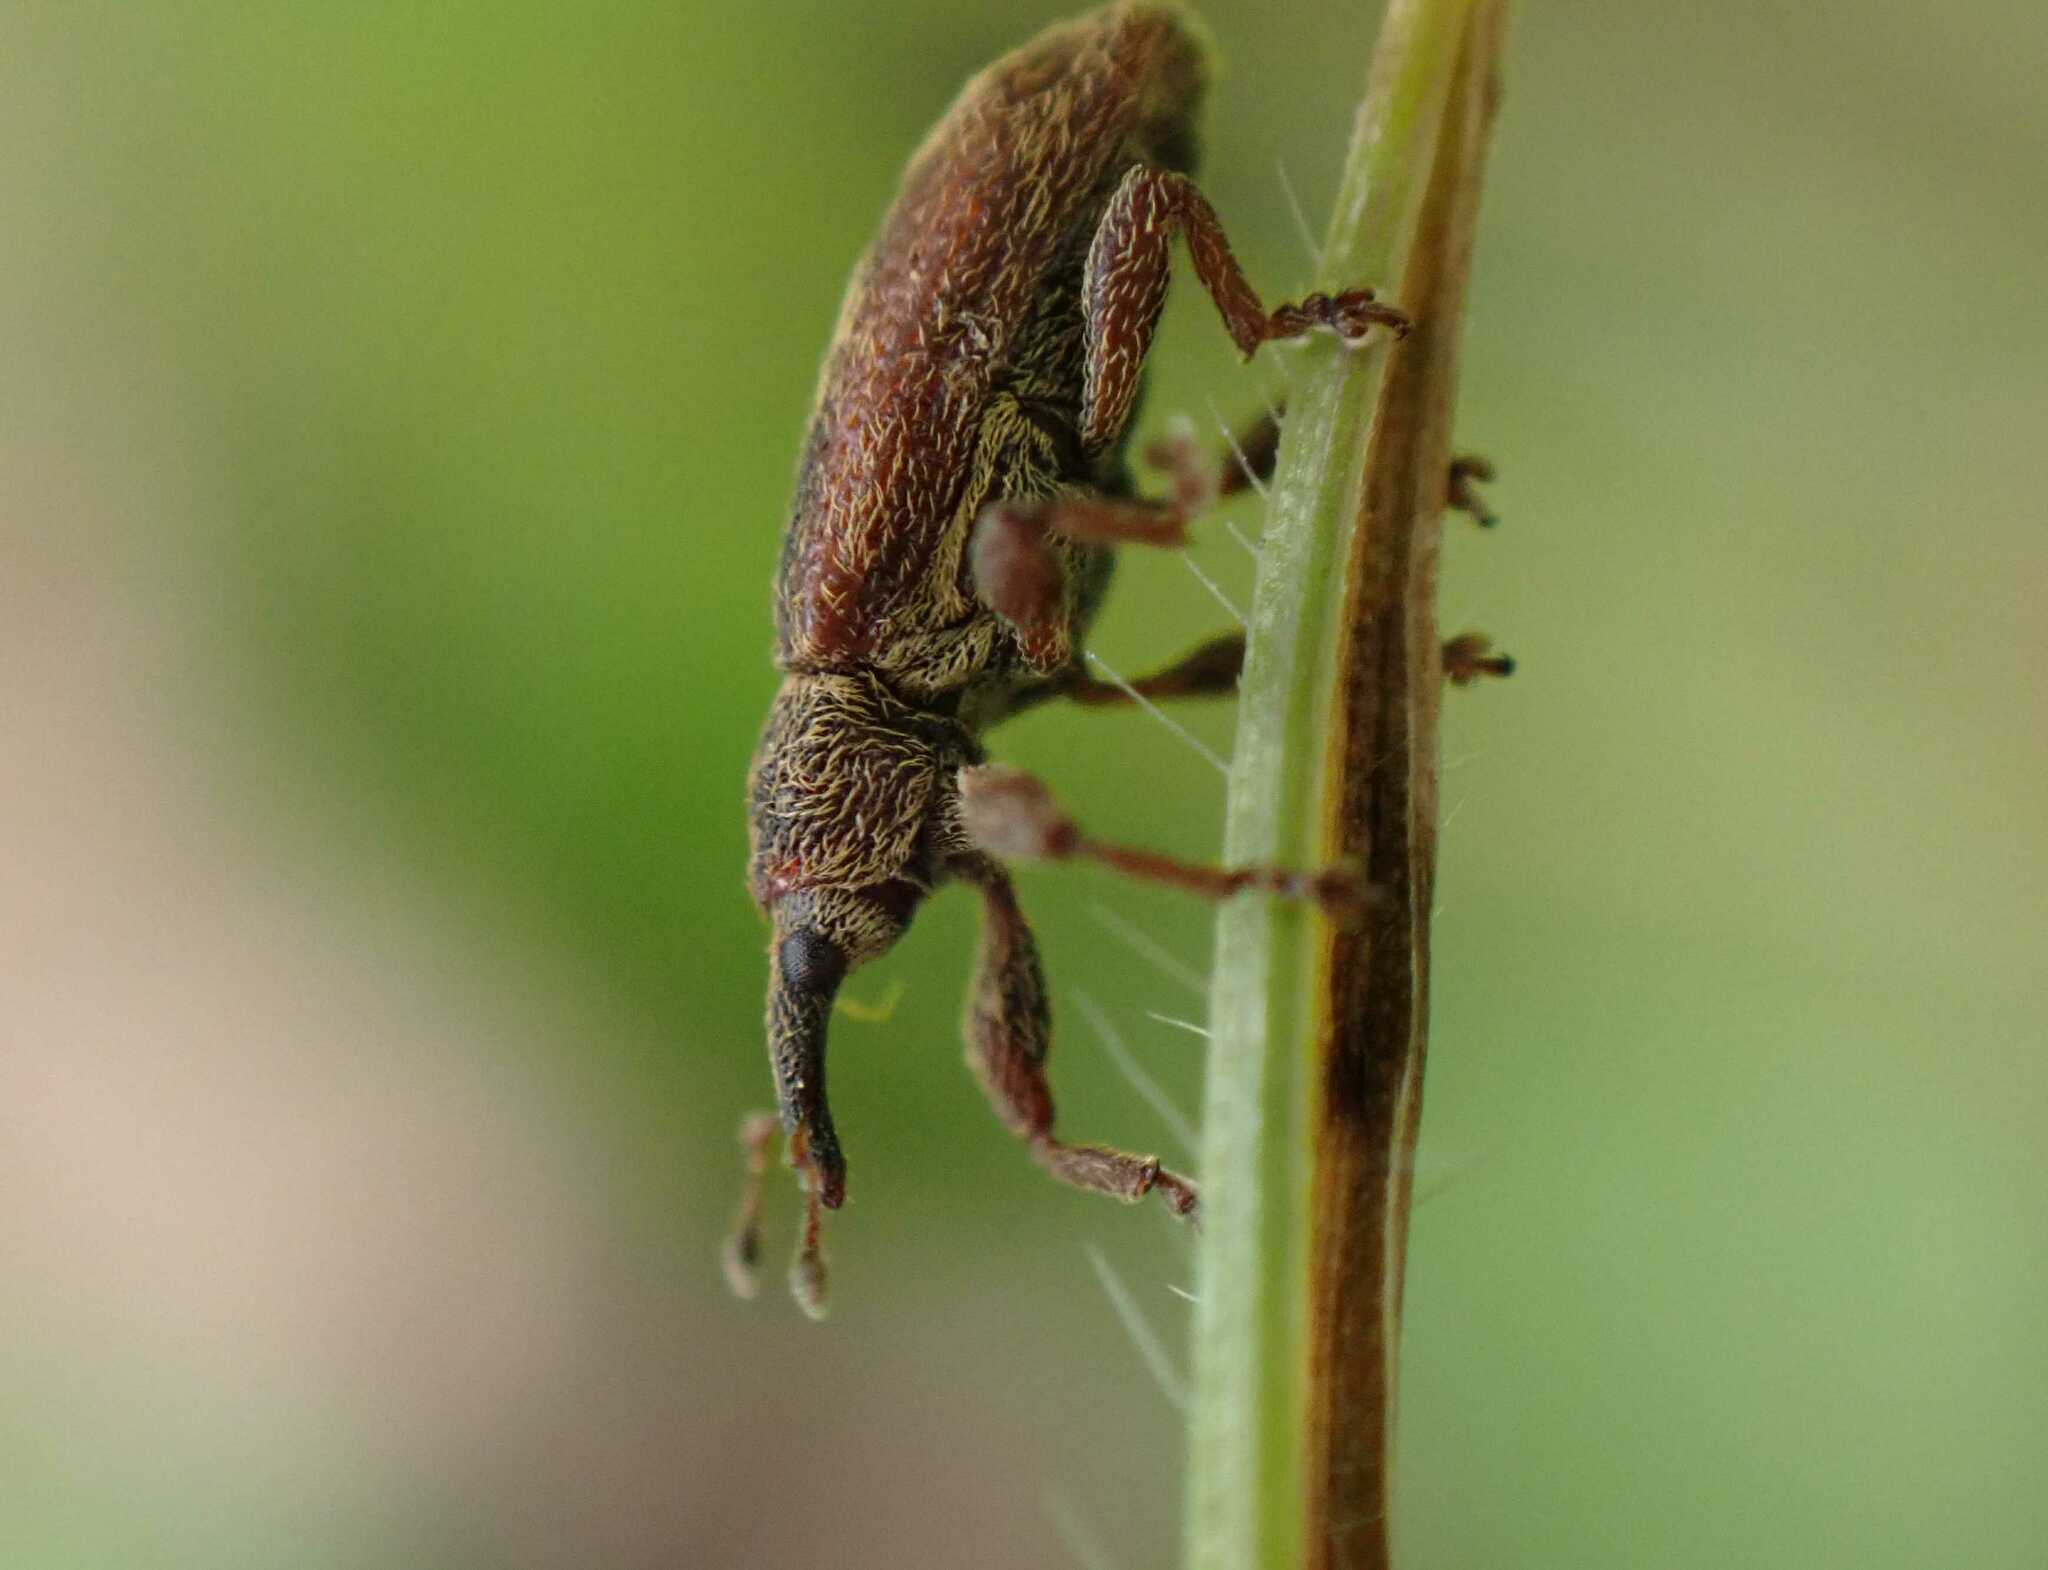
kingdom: Animalia
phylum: Arthropoda
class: Insecta
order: Coleoptera
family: Curculionidae
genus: Bradybatus
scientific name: Bradybatus creutzeri
